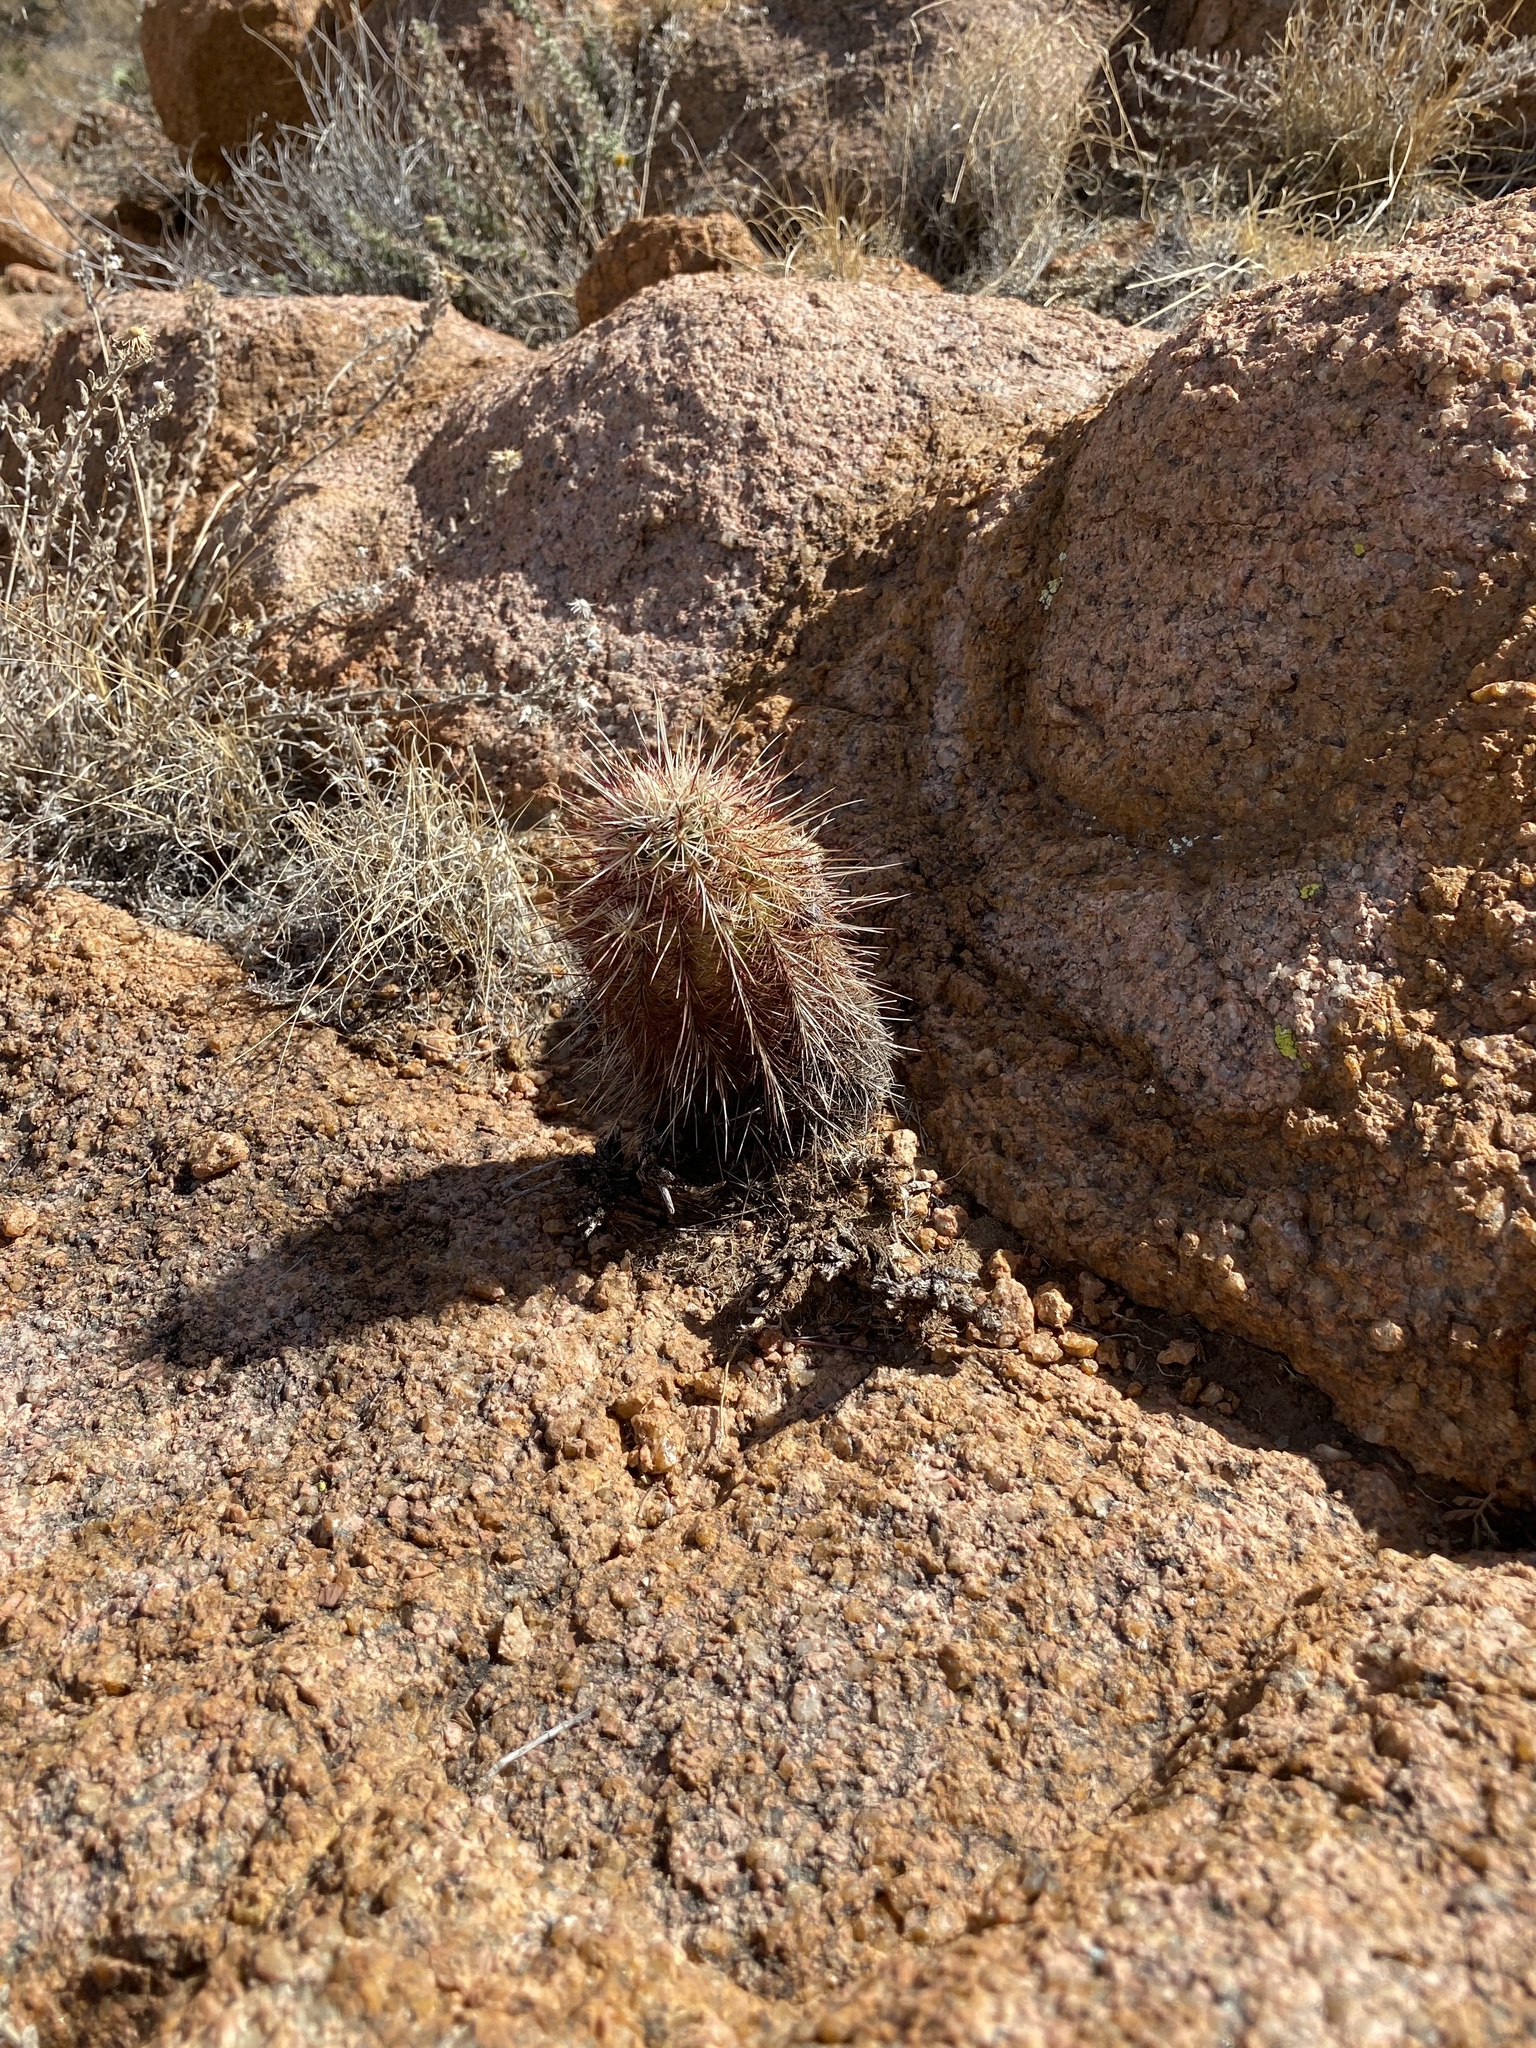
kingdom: Plantae
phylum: Tracheophyta
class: Magnoliopsida
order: Caryophyllales
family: Cactaceae
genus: Echinocereus
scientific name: Echinocereus viridiflorus
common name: Nylon hedgehog cactus
